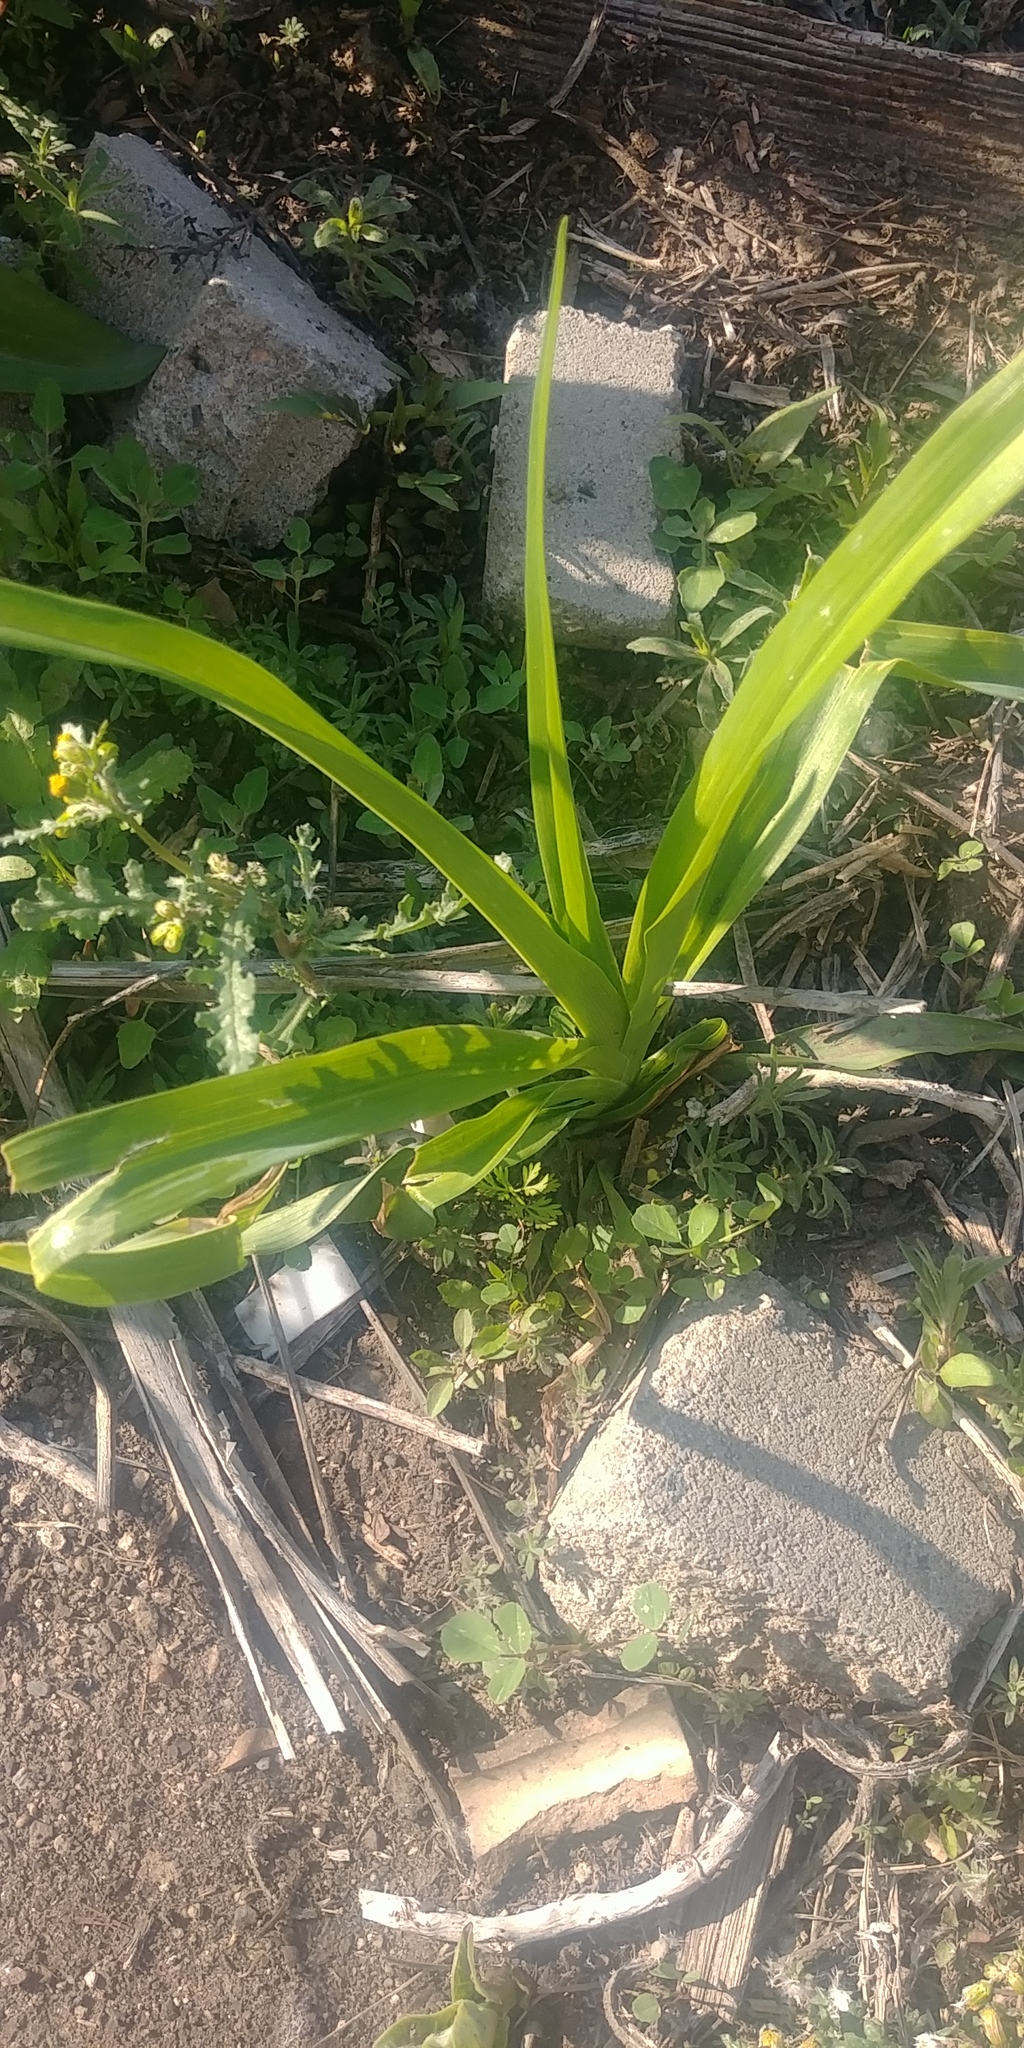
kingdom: Plantae
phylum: Tracheophyta
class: Liliopsida
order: Asparagales
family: Asphodelaceae
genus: Hemerocallis
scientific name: Hemerocallis fulva
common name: Orange day-lily
